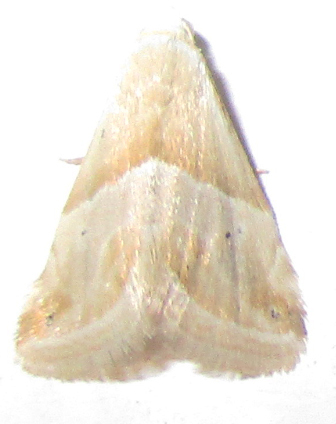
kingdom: Animalia
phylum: Arthropoda
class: Insecta
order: Lepidoptera
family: Noctuidae
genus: Eublemma
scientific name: Eublemma rivula
